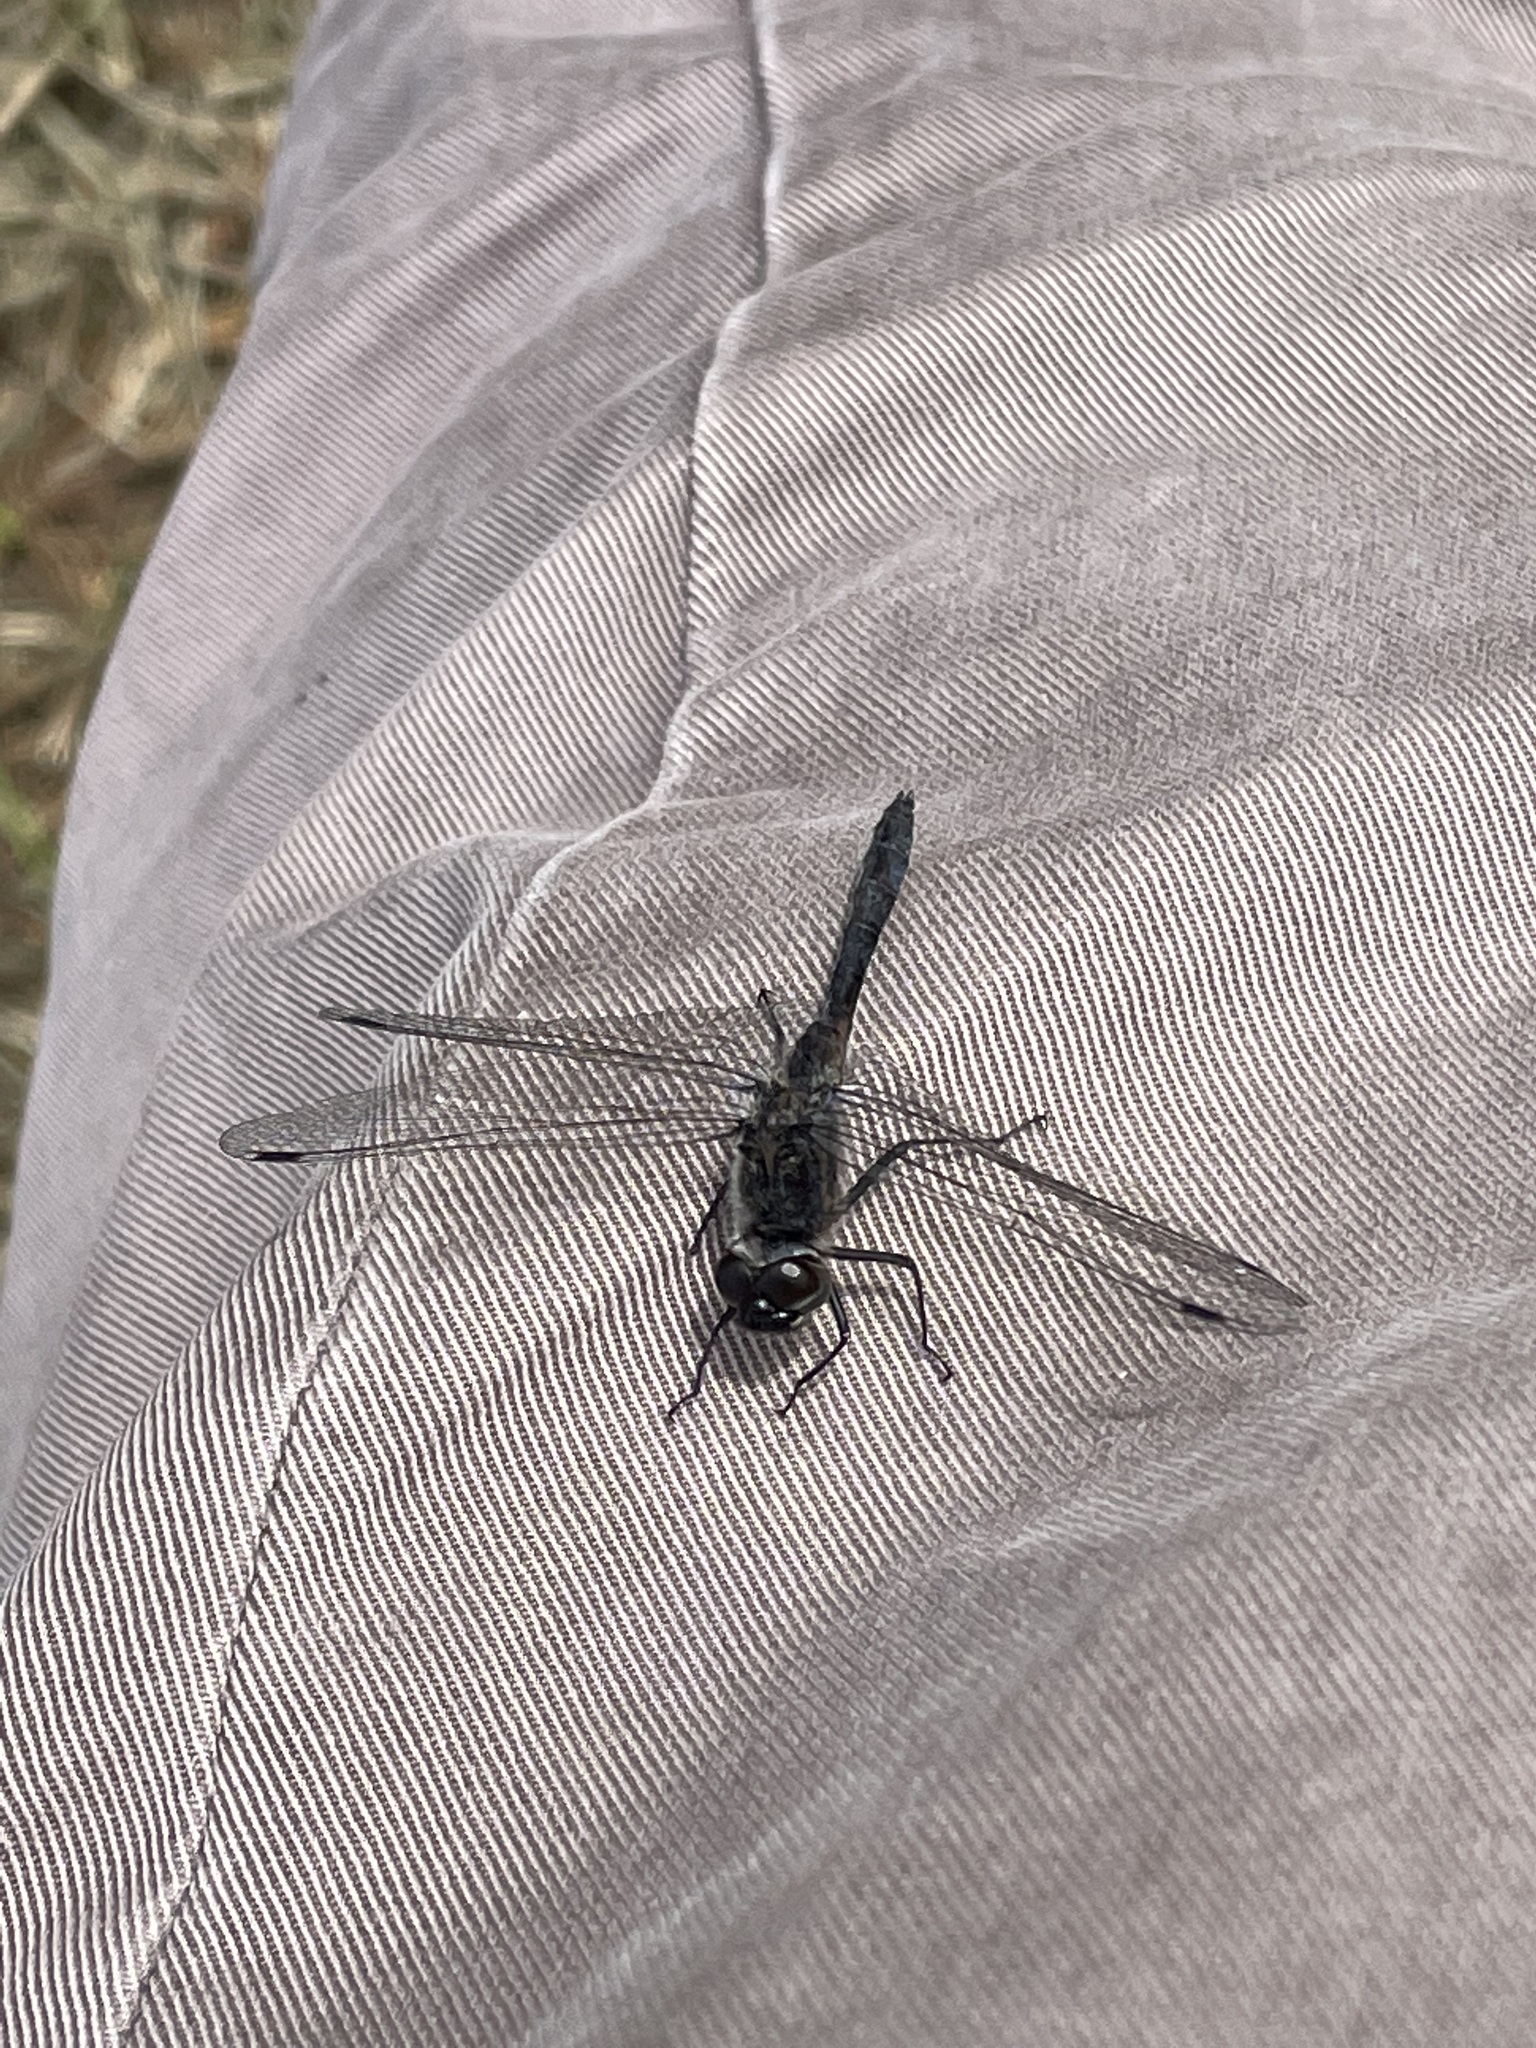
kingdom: Animalia
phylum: Arthropoda
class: Insecta
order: Odonata
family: Libellulidae
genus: Sympetrum
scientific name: Sympetrum danae
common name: Black darter
